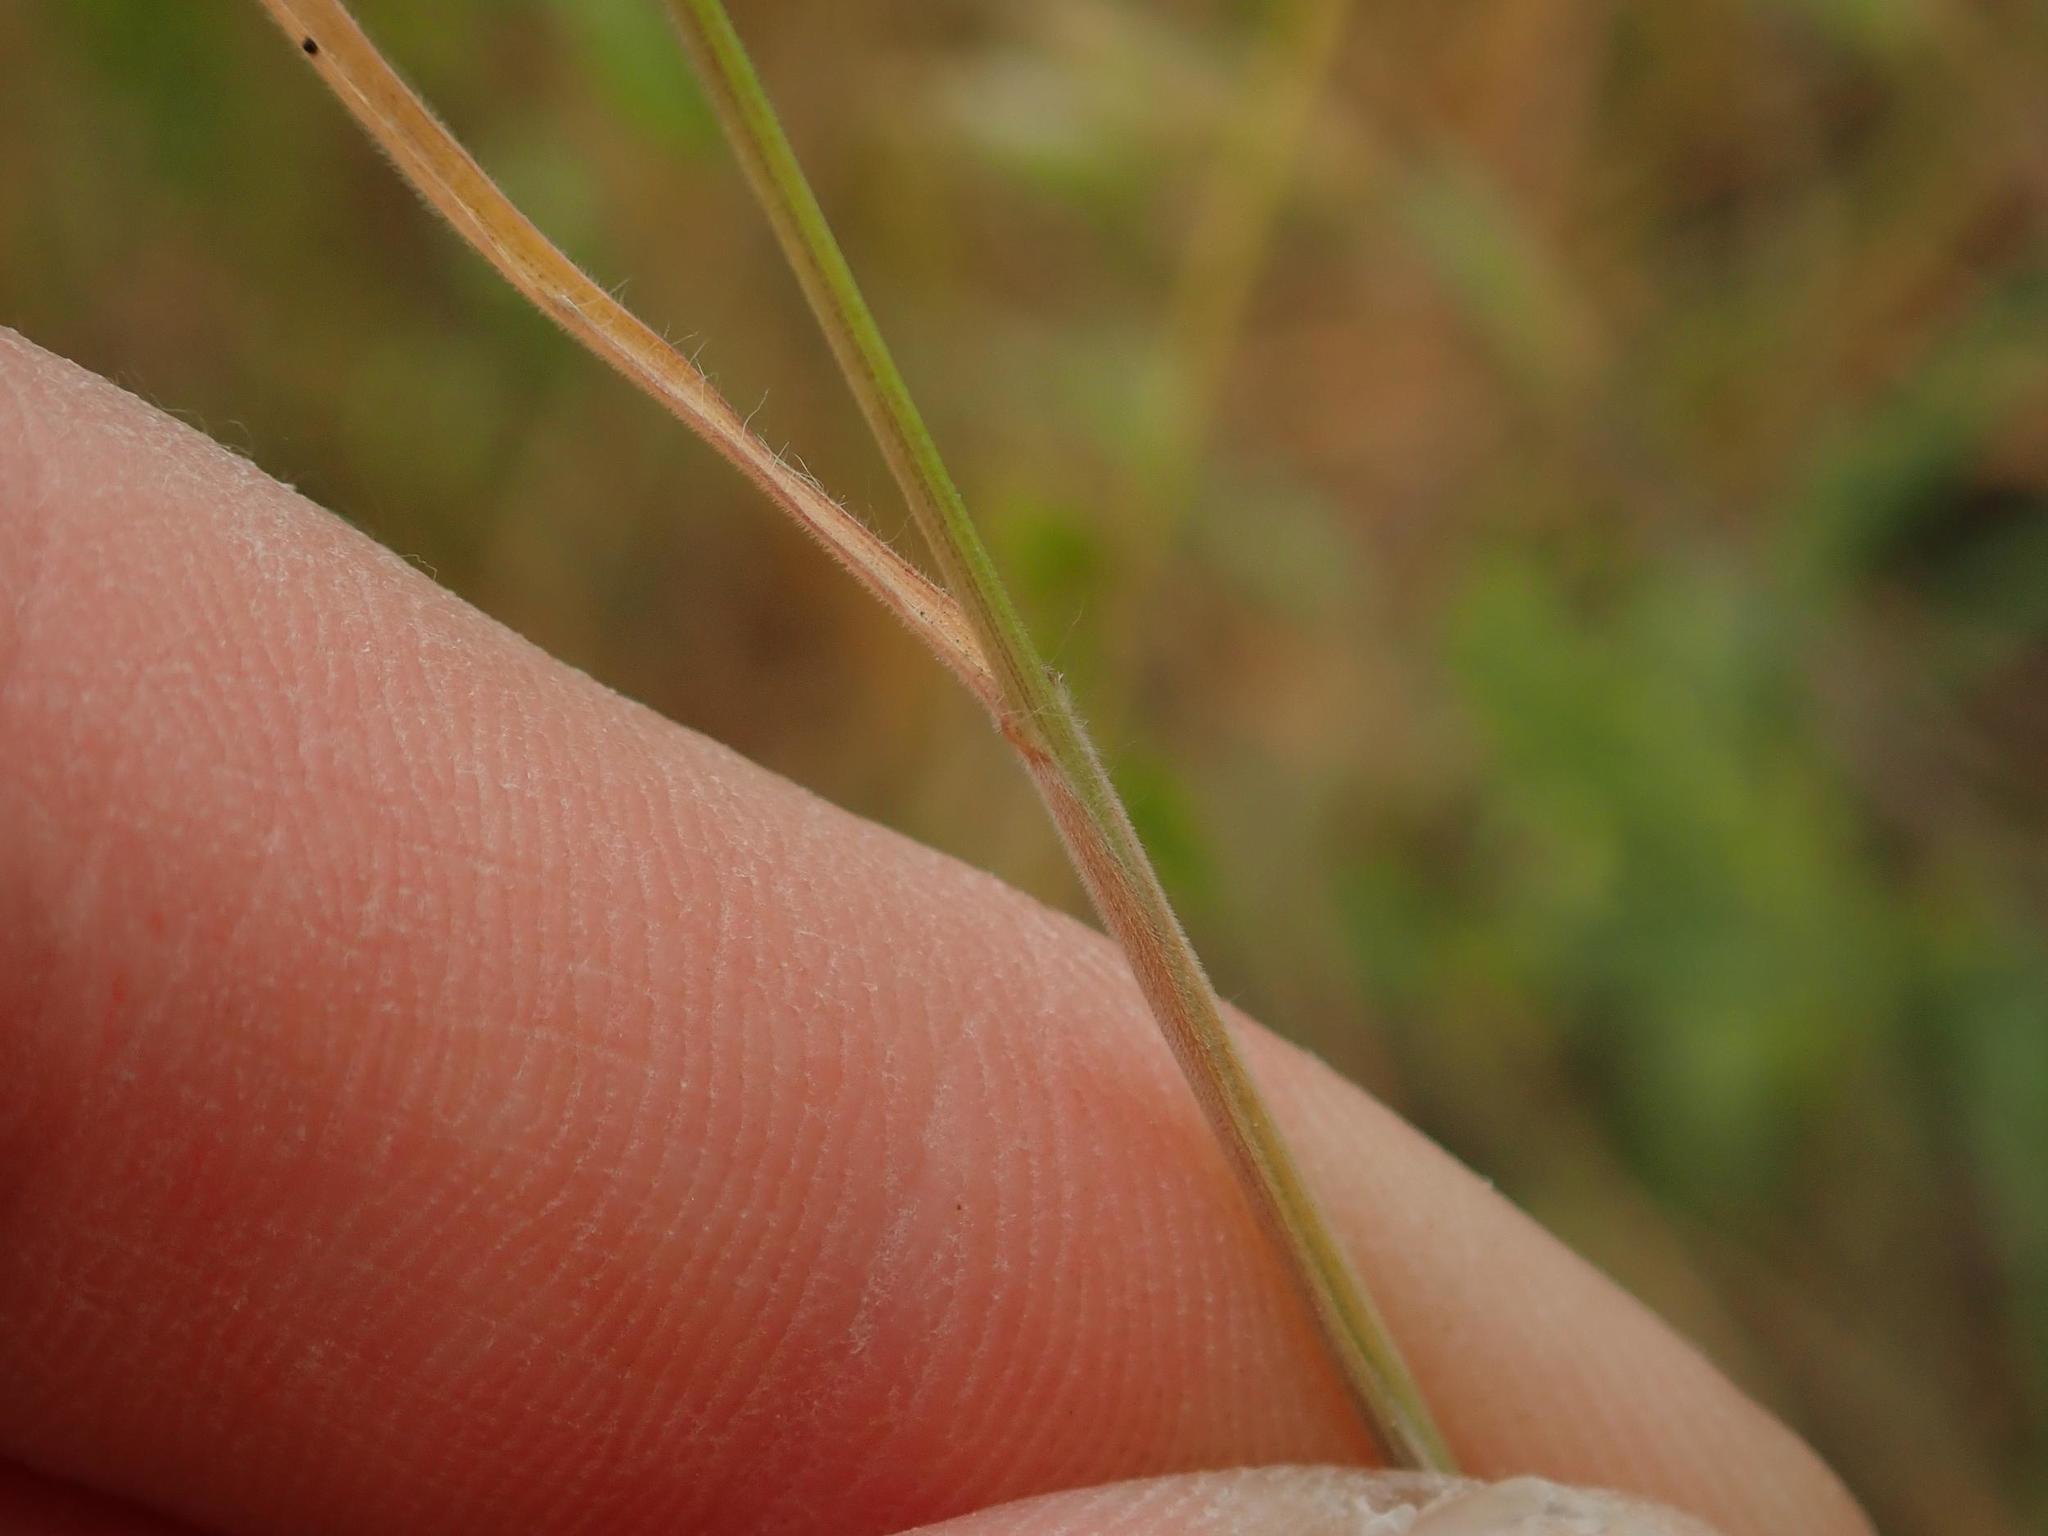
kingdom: Plantae
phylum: Tracheophyta
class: Liliopsida
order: Poales
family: Poaceae
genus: Bromus
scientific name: Bromus hordeaceus
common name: Soft brome
